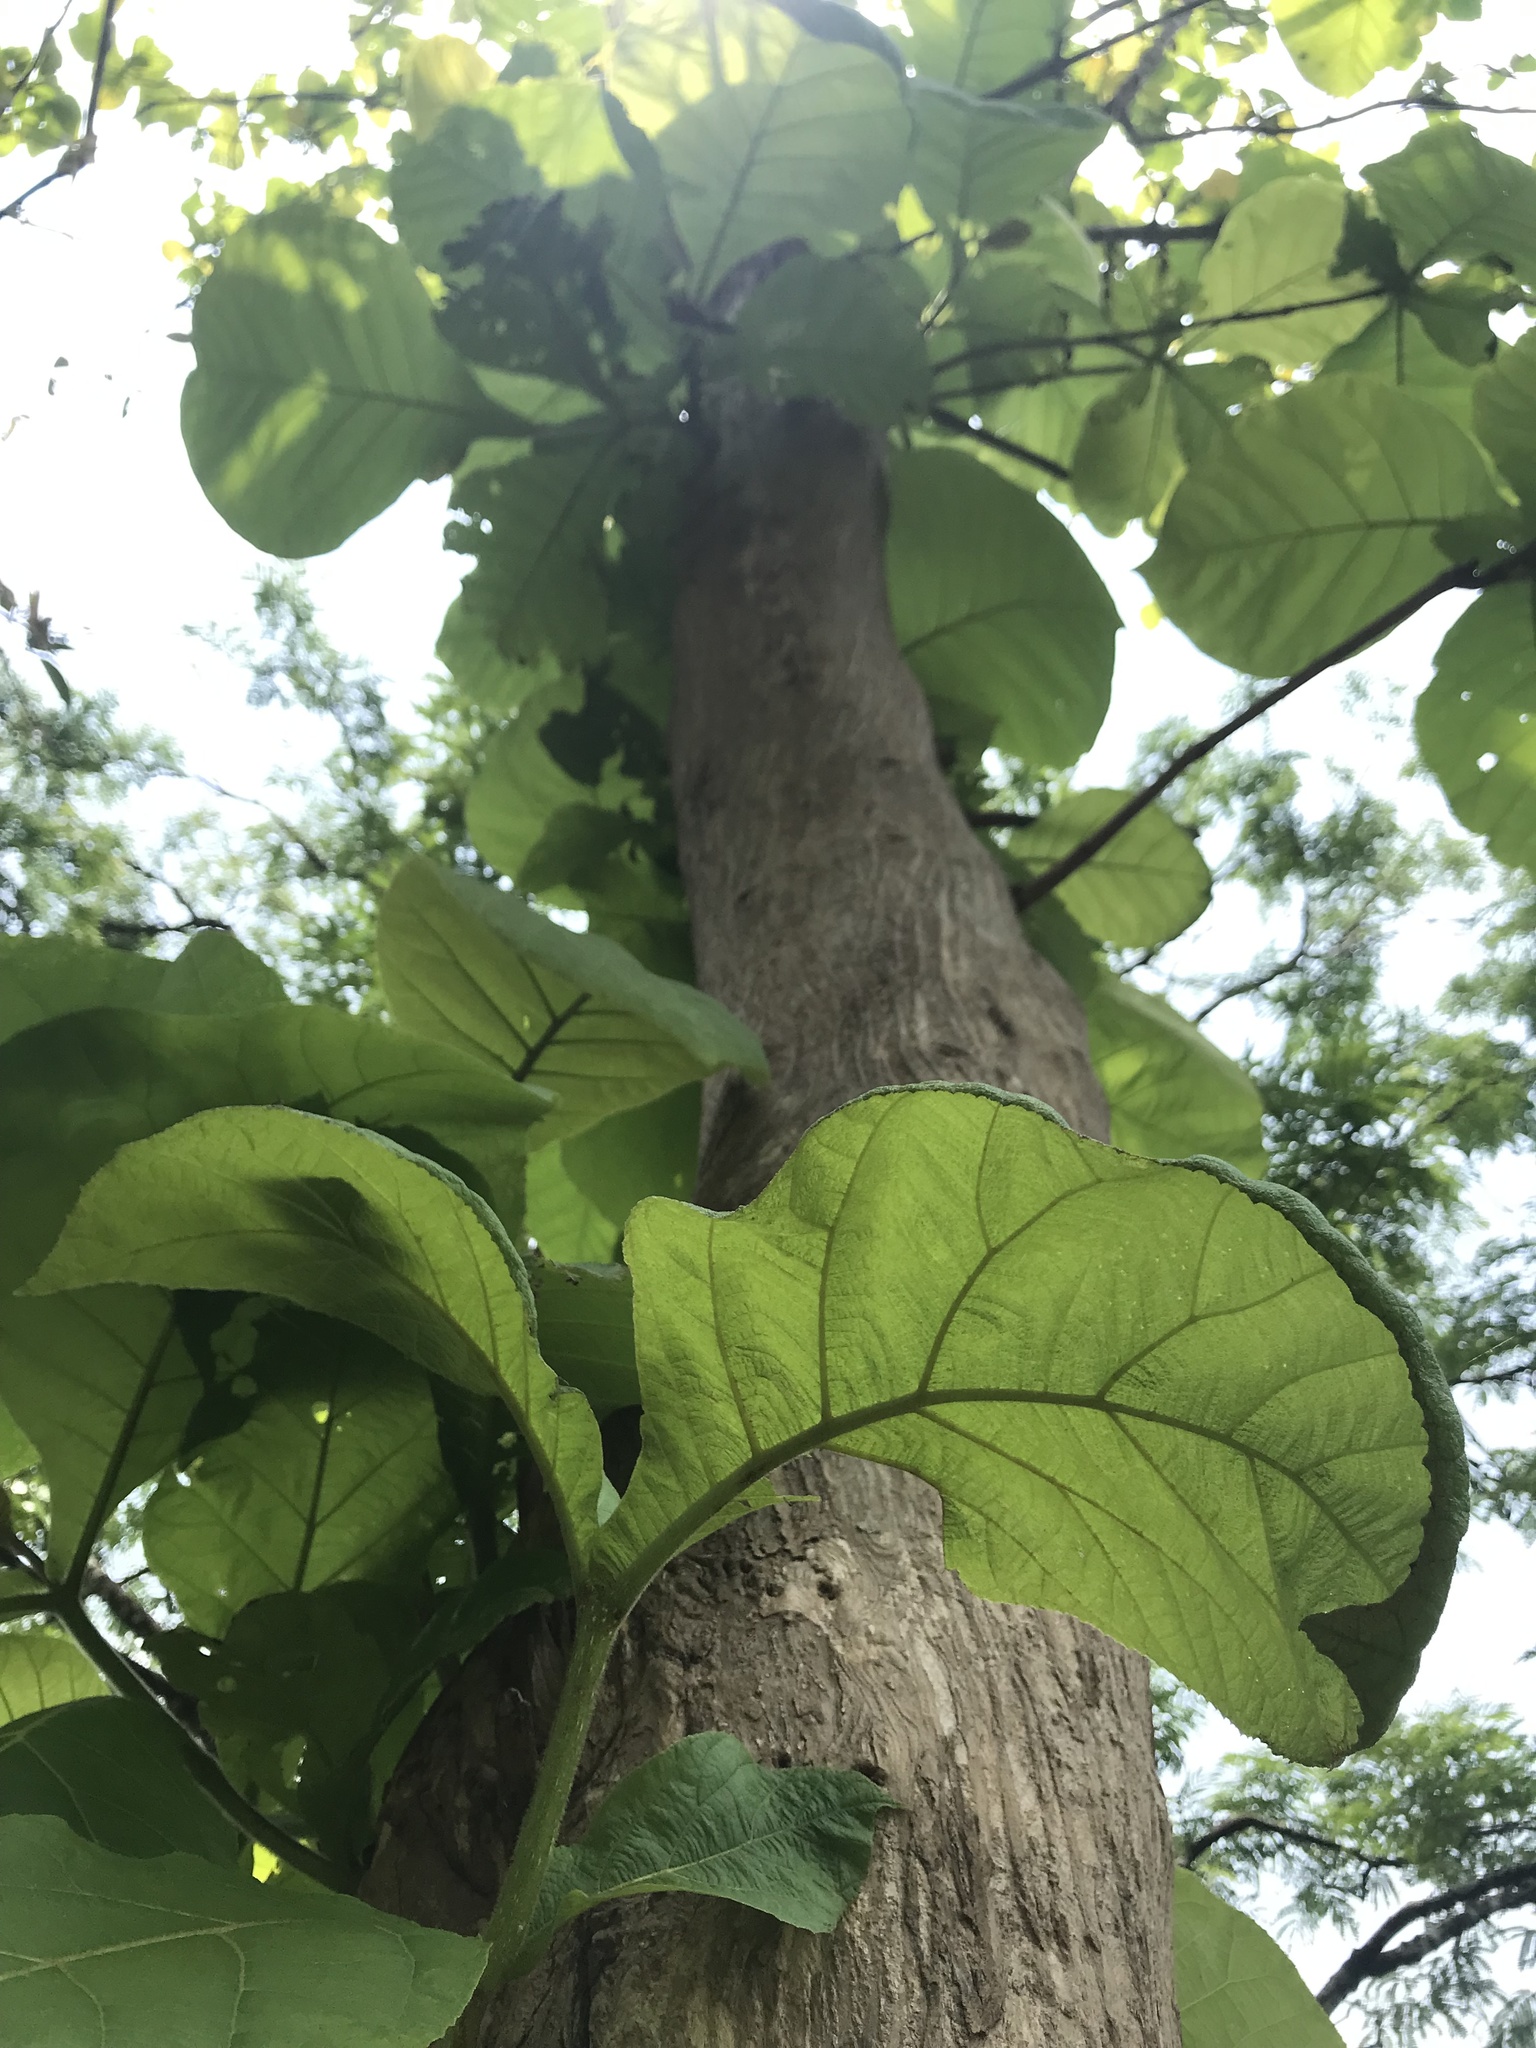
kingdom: Plantae
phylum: Tracheophyta
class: Magnoliopsida
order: Lamiales
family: Lamiaceae
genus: Tectona
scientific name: Tectona grandis
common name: Teak
